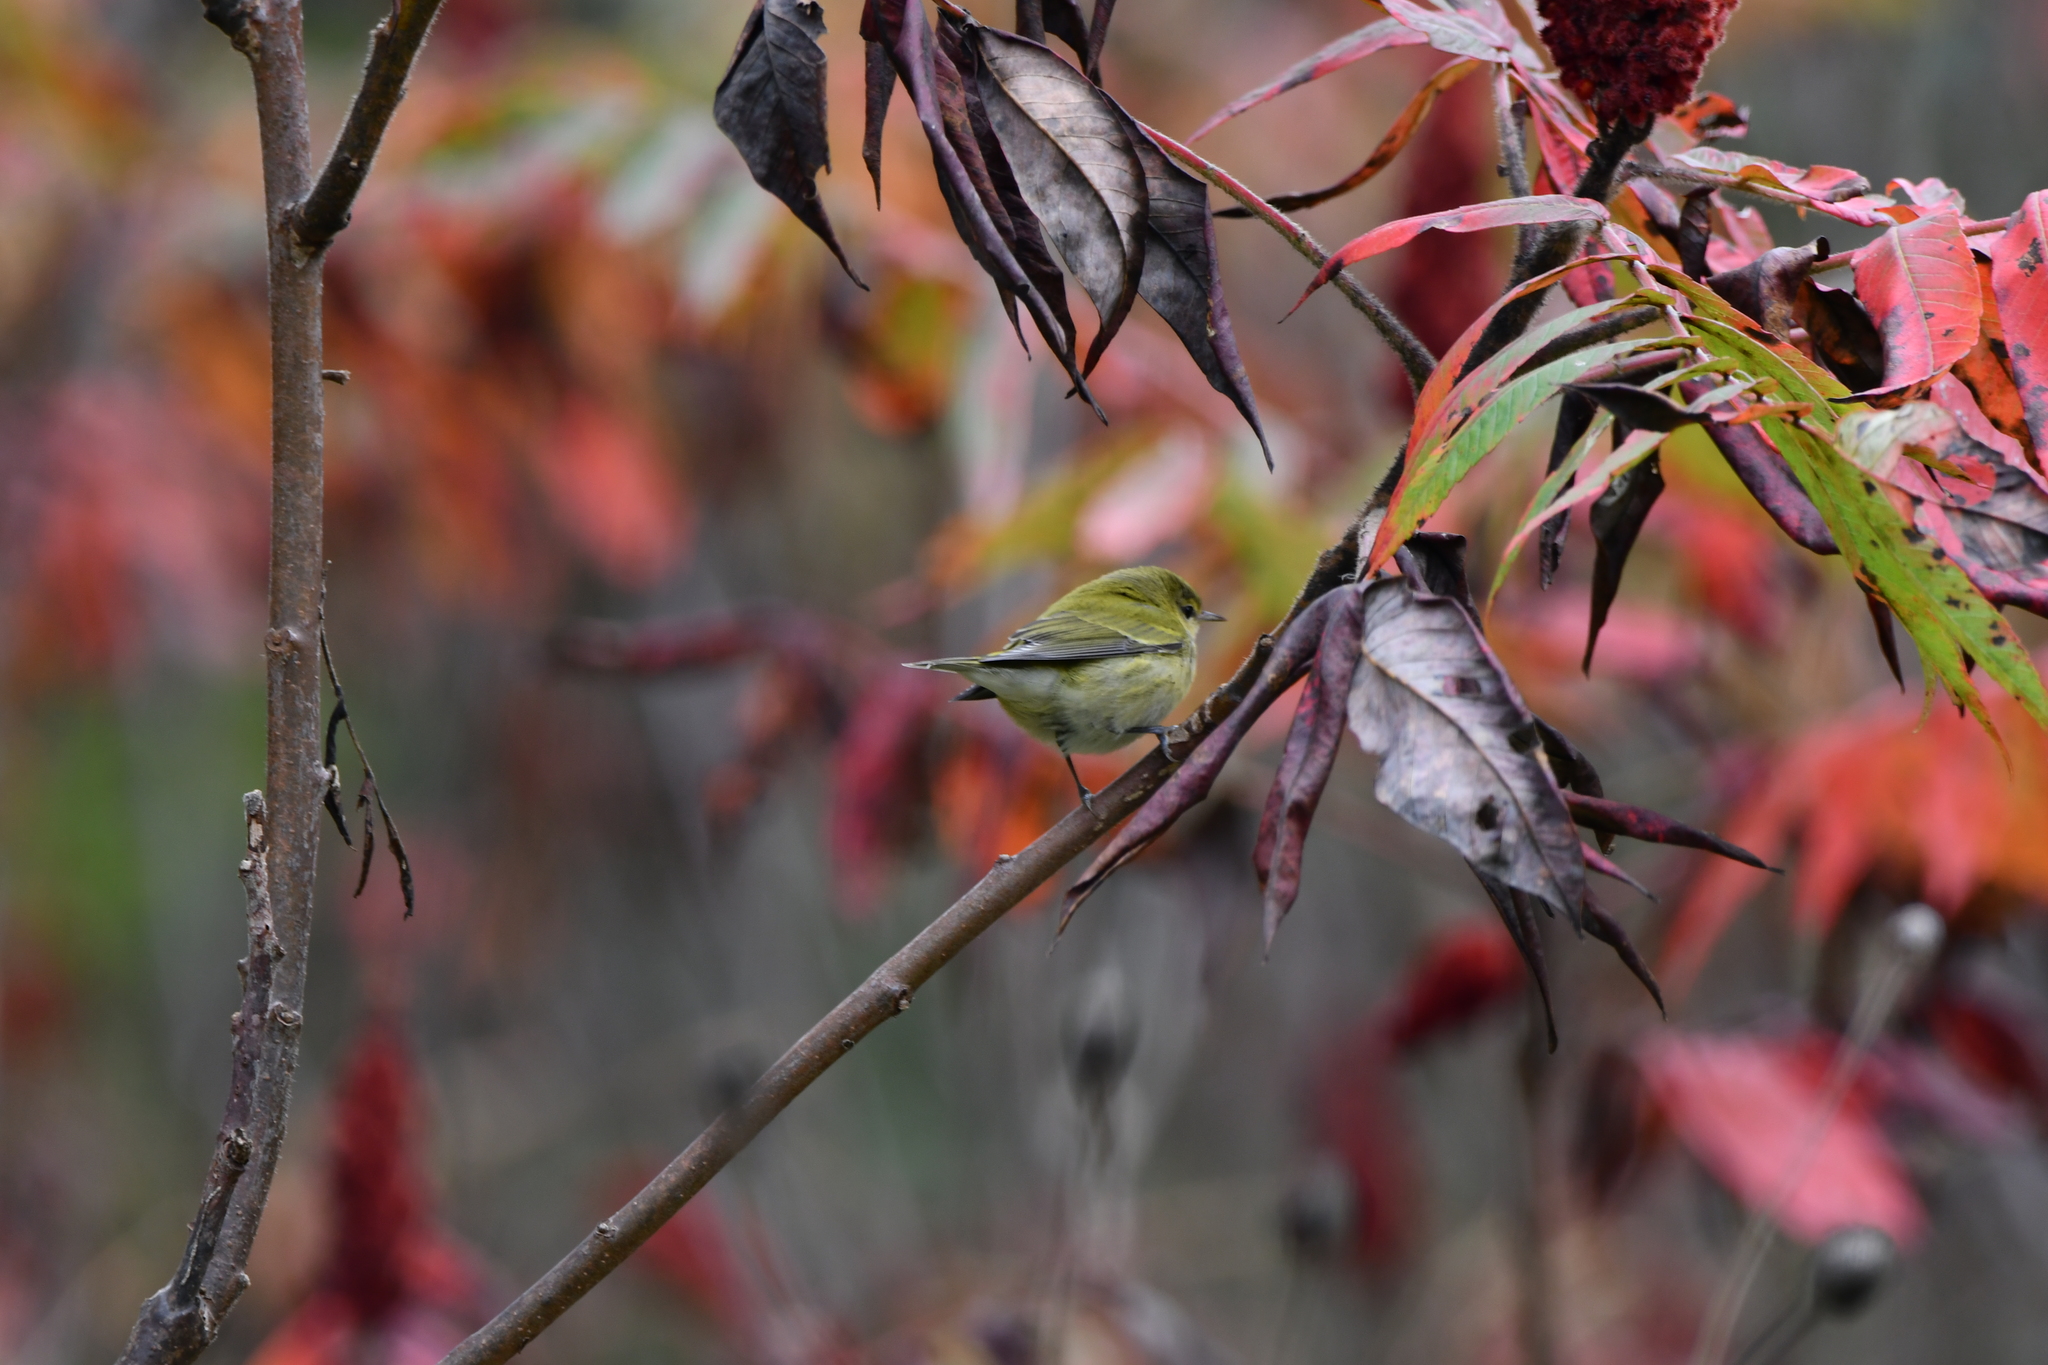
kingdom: Animalia
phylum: Chordata
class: Aves
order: Passeriformes
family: Parulidae
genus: Leiothlypis
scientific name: Leiothlypis peregrina
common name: Tennessee warbler
